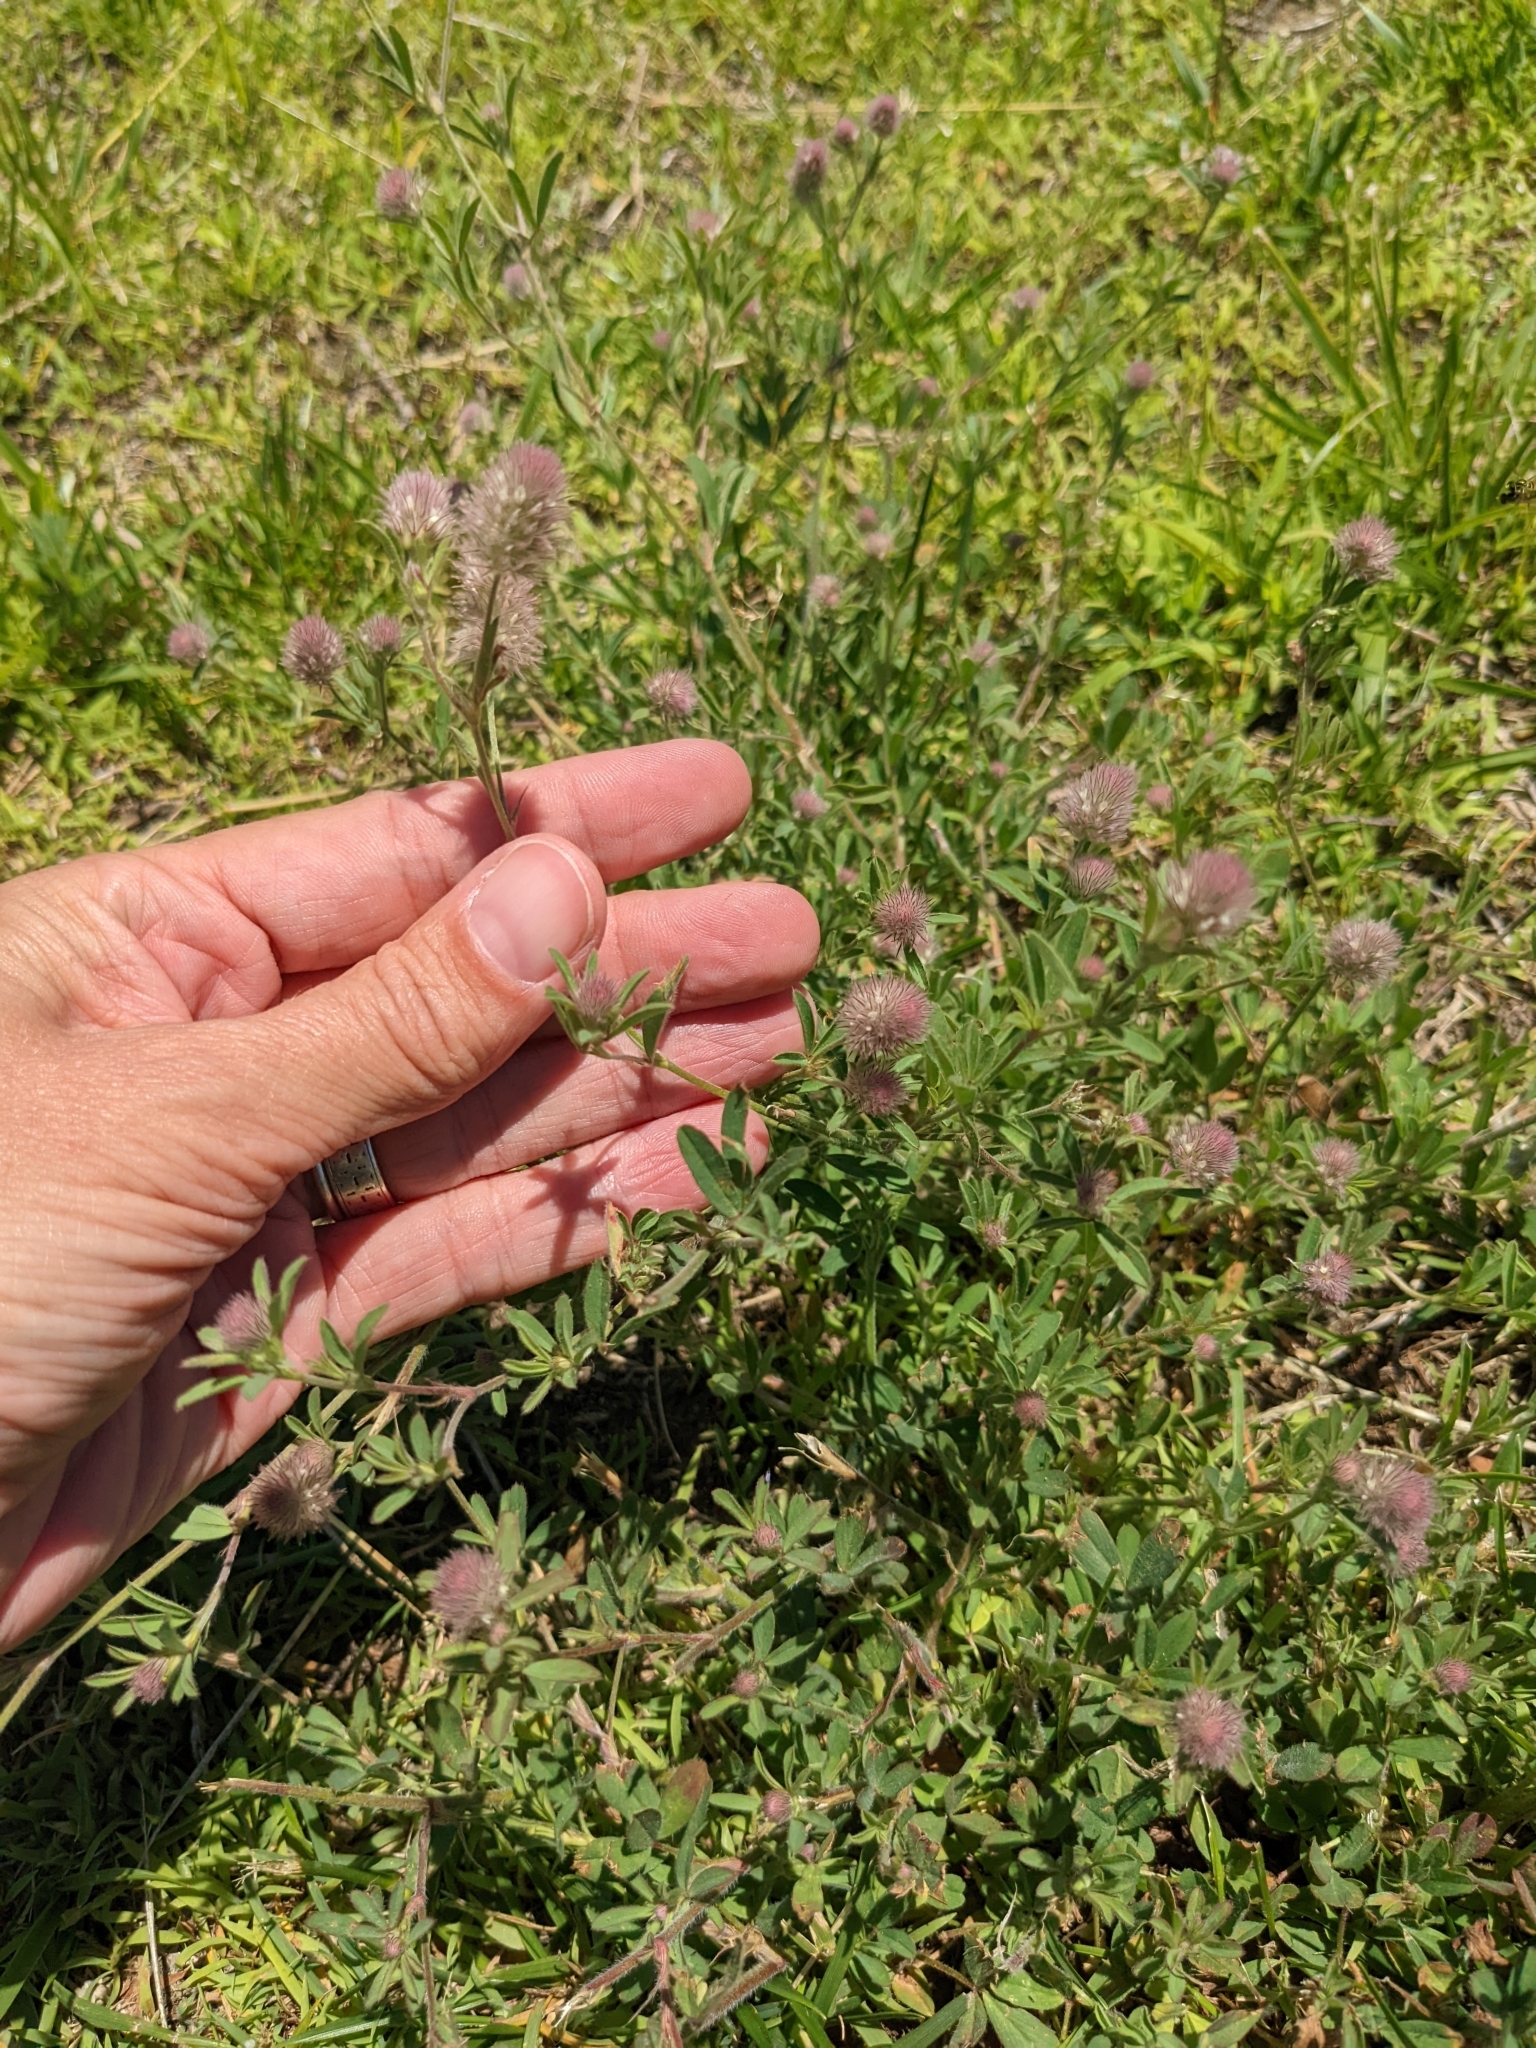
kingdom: Plantae
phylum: Tracheophyta
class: Magnoliopsida
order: Fabales
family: Fabaceae
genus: Trifolium
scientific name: Trifolium arvense
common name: Hare's-foot clover
